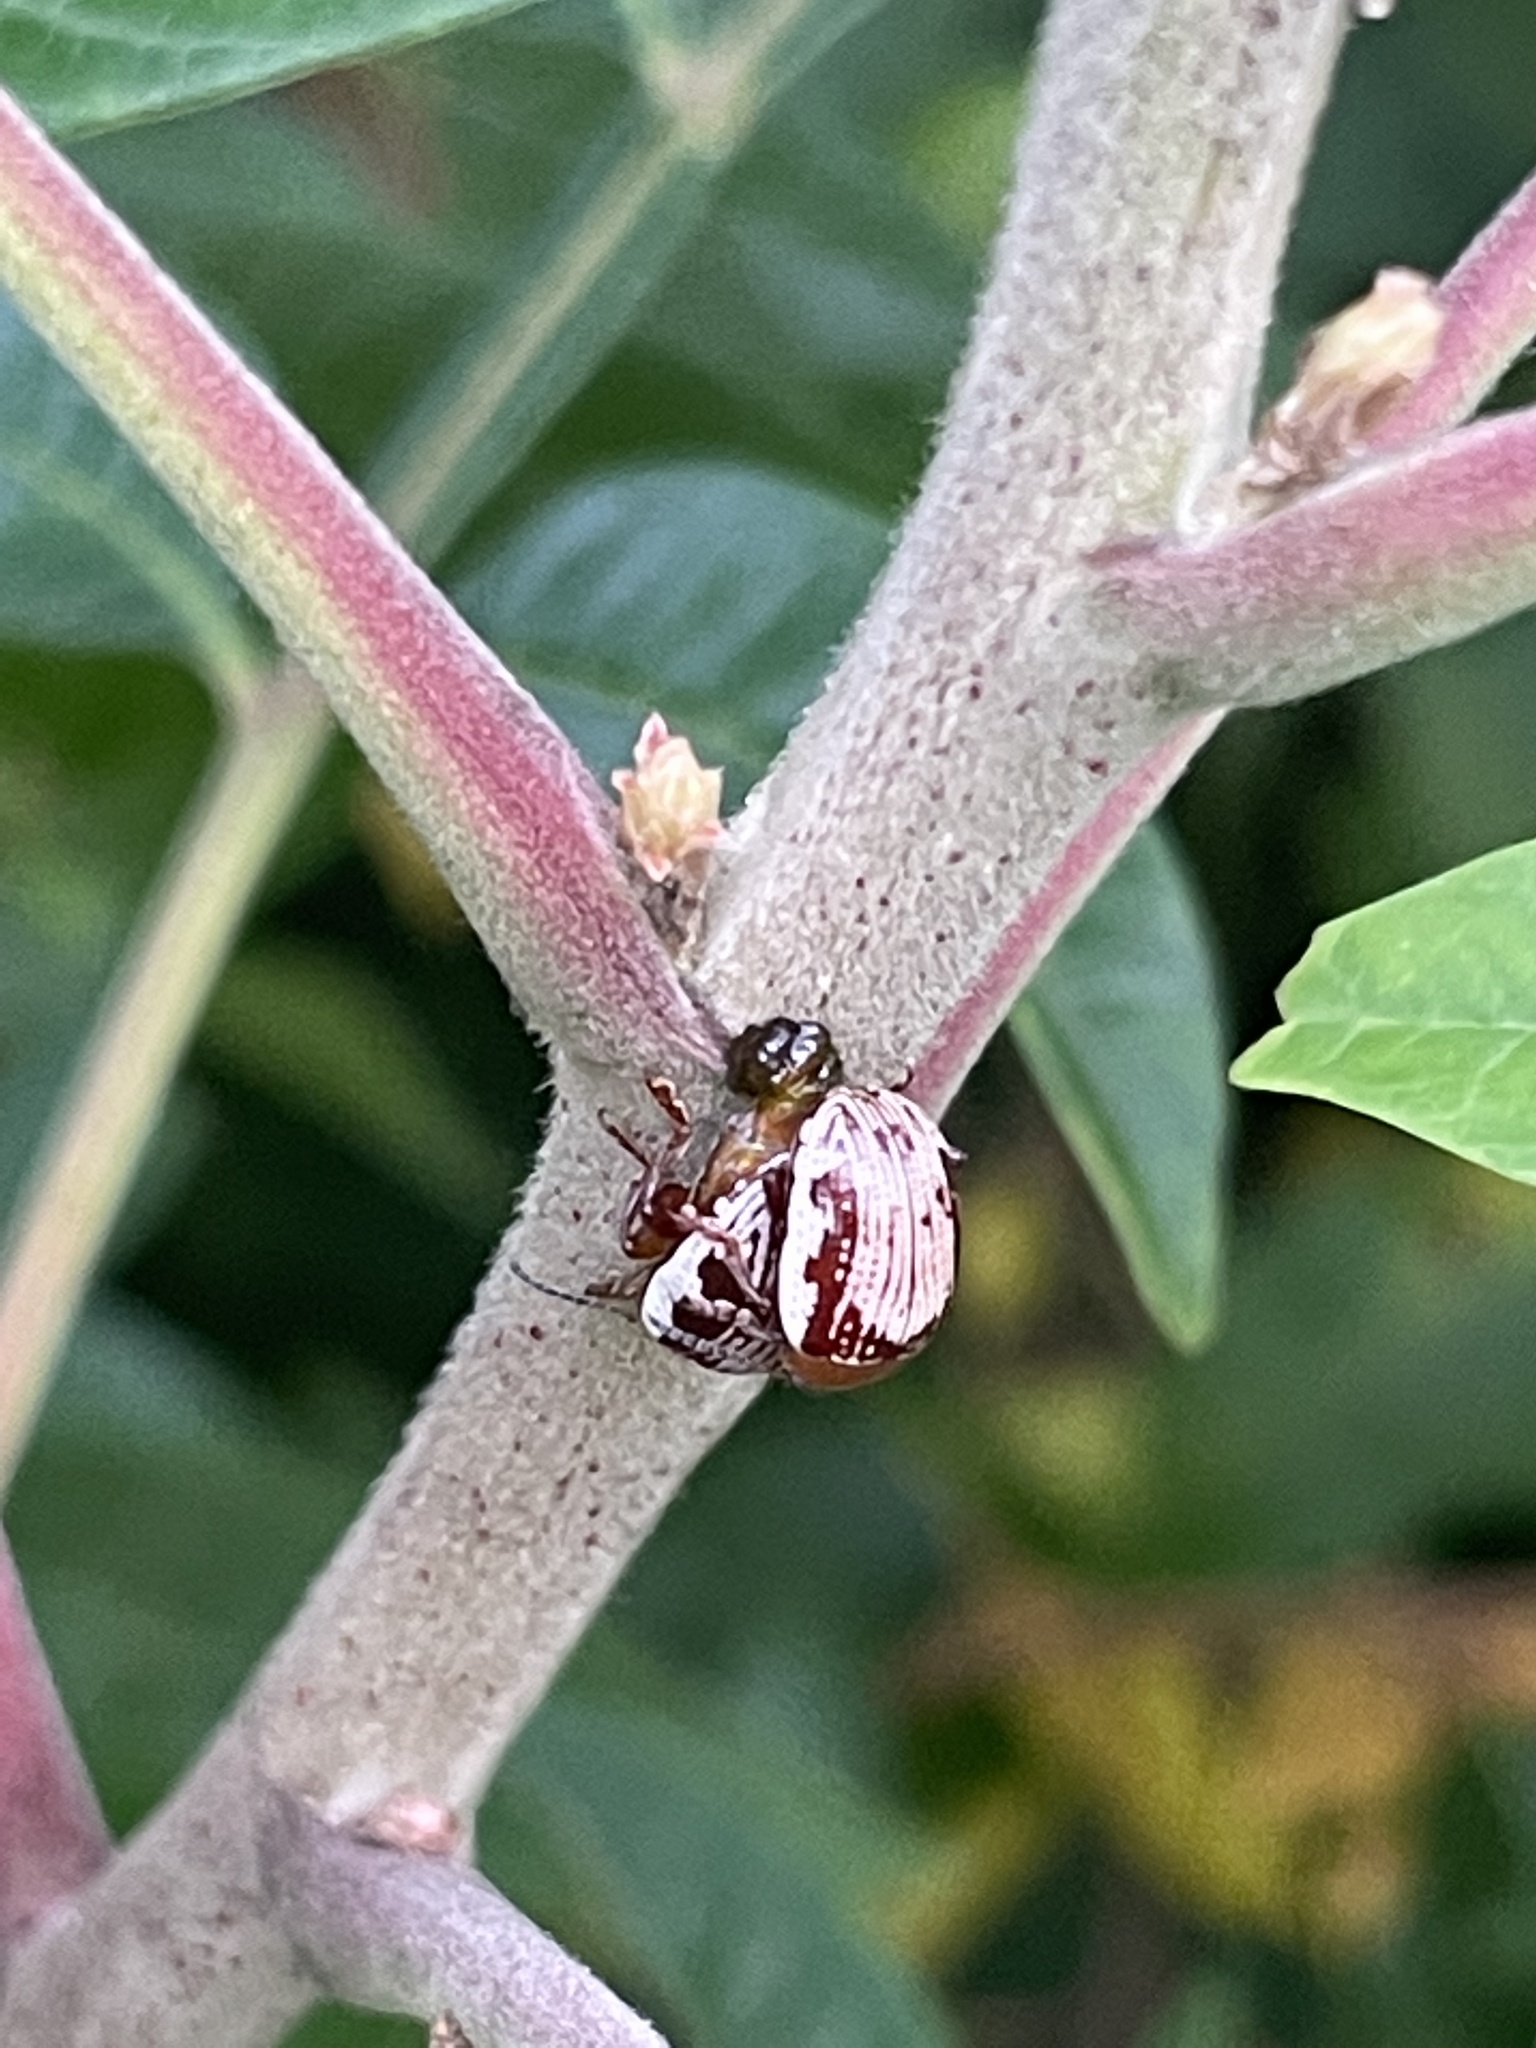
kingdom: Animalia
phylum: Arthropoda
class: Insecta
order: Coleoptera
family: Chrysomelidae
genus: Blepharida
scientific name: Blepharida rhois
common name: Sumac flea beetle
